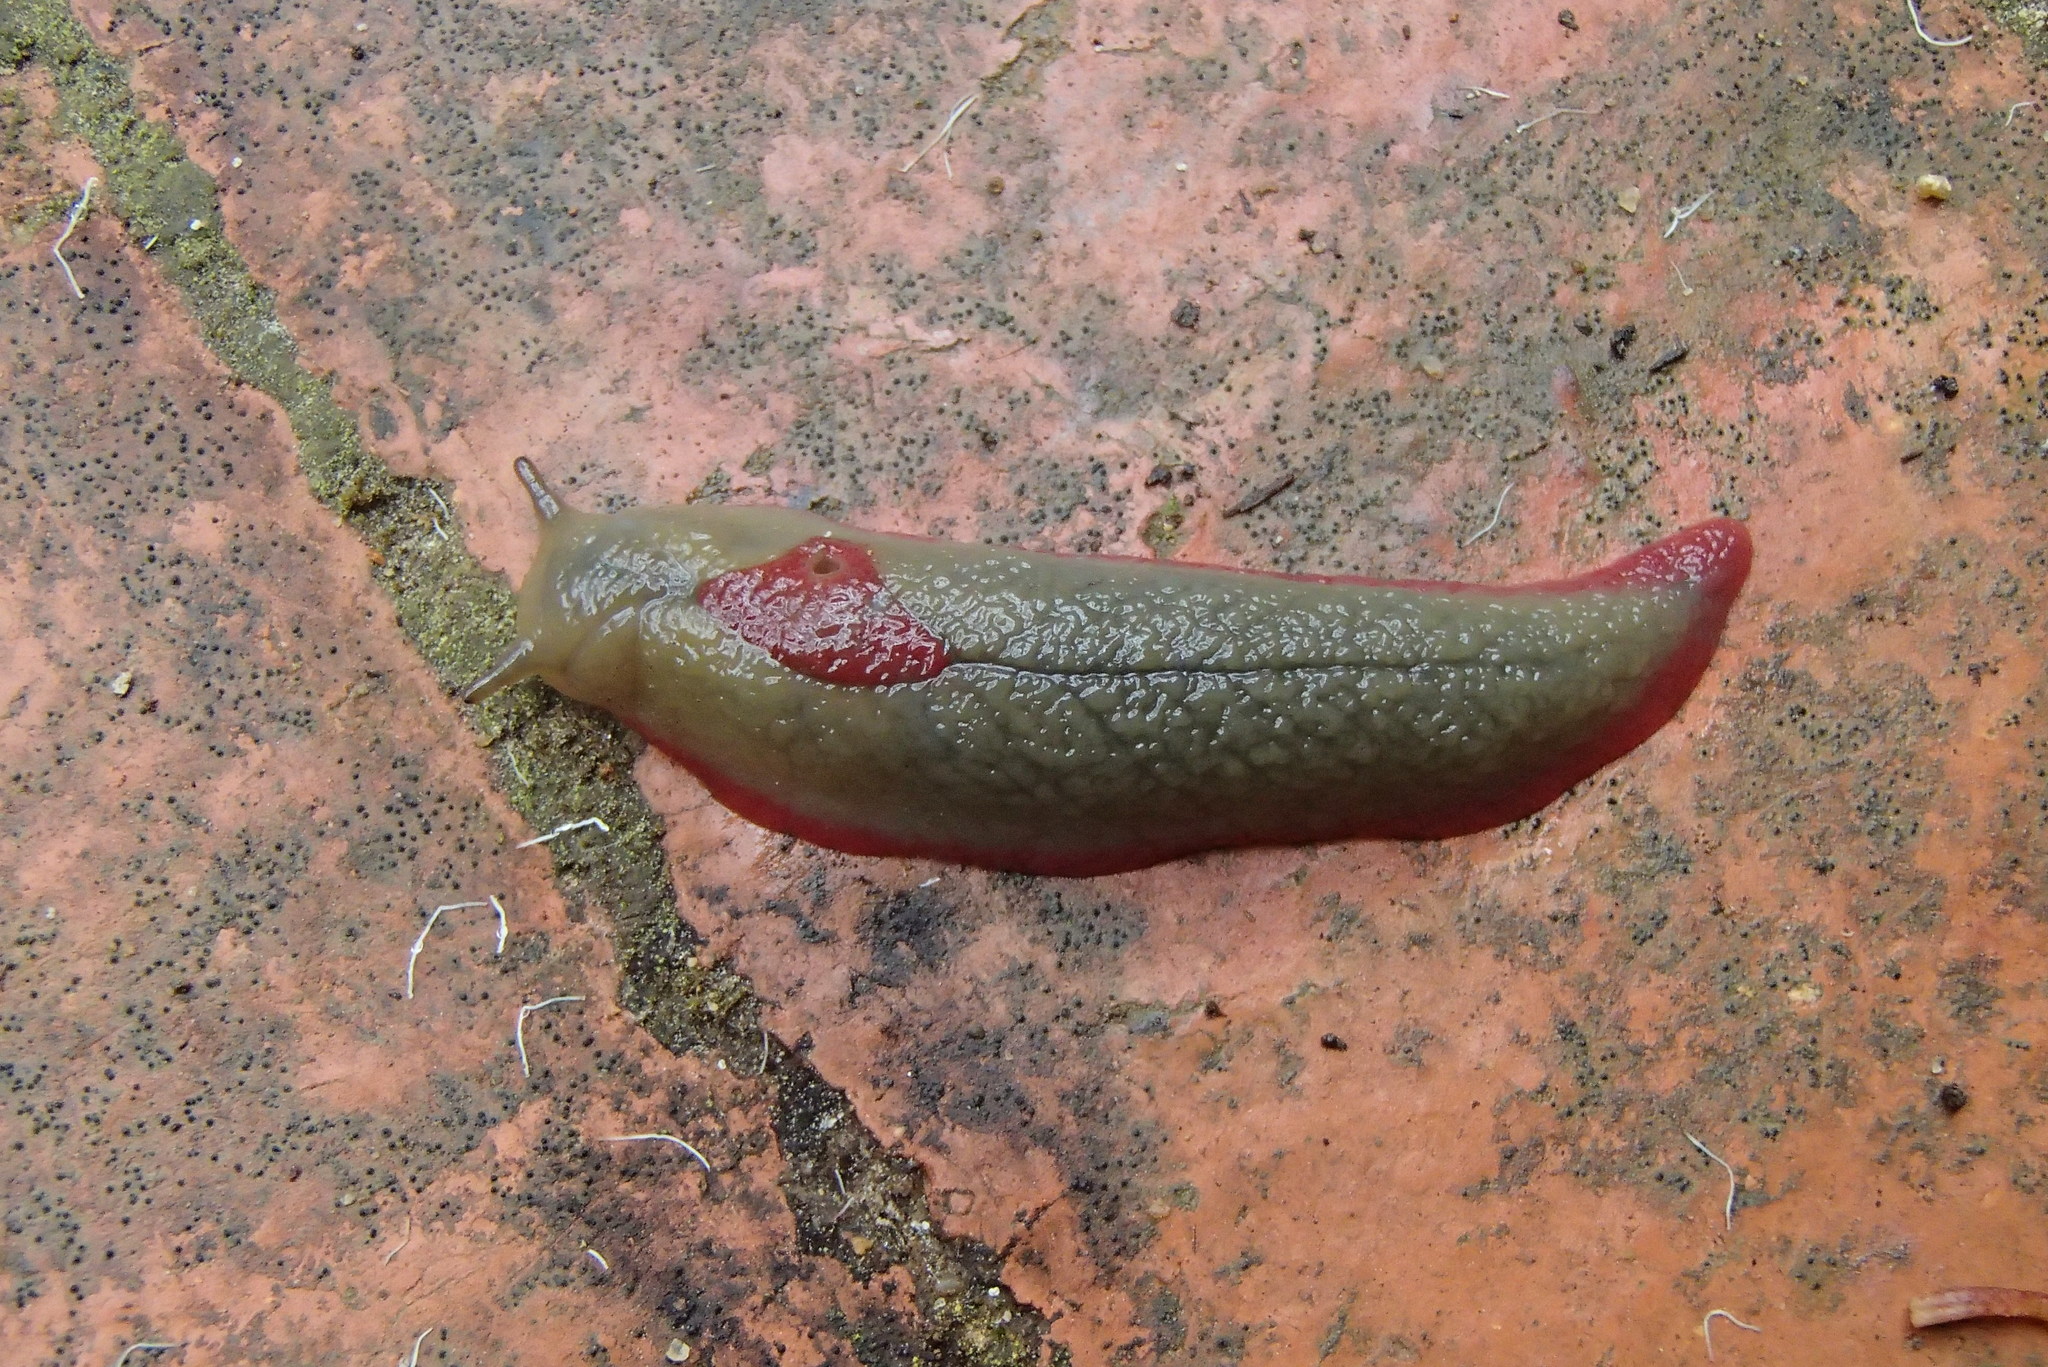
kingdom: Animalia
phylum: Mollusca
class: Gastropoda
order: Stylommatophora
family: Athoracophoridae
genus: Triboniophorus
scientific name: Triboniophorus graeffei
